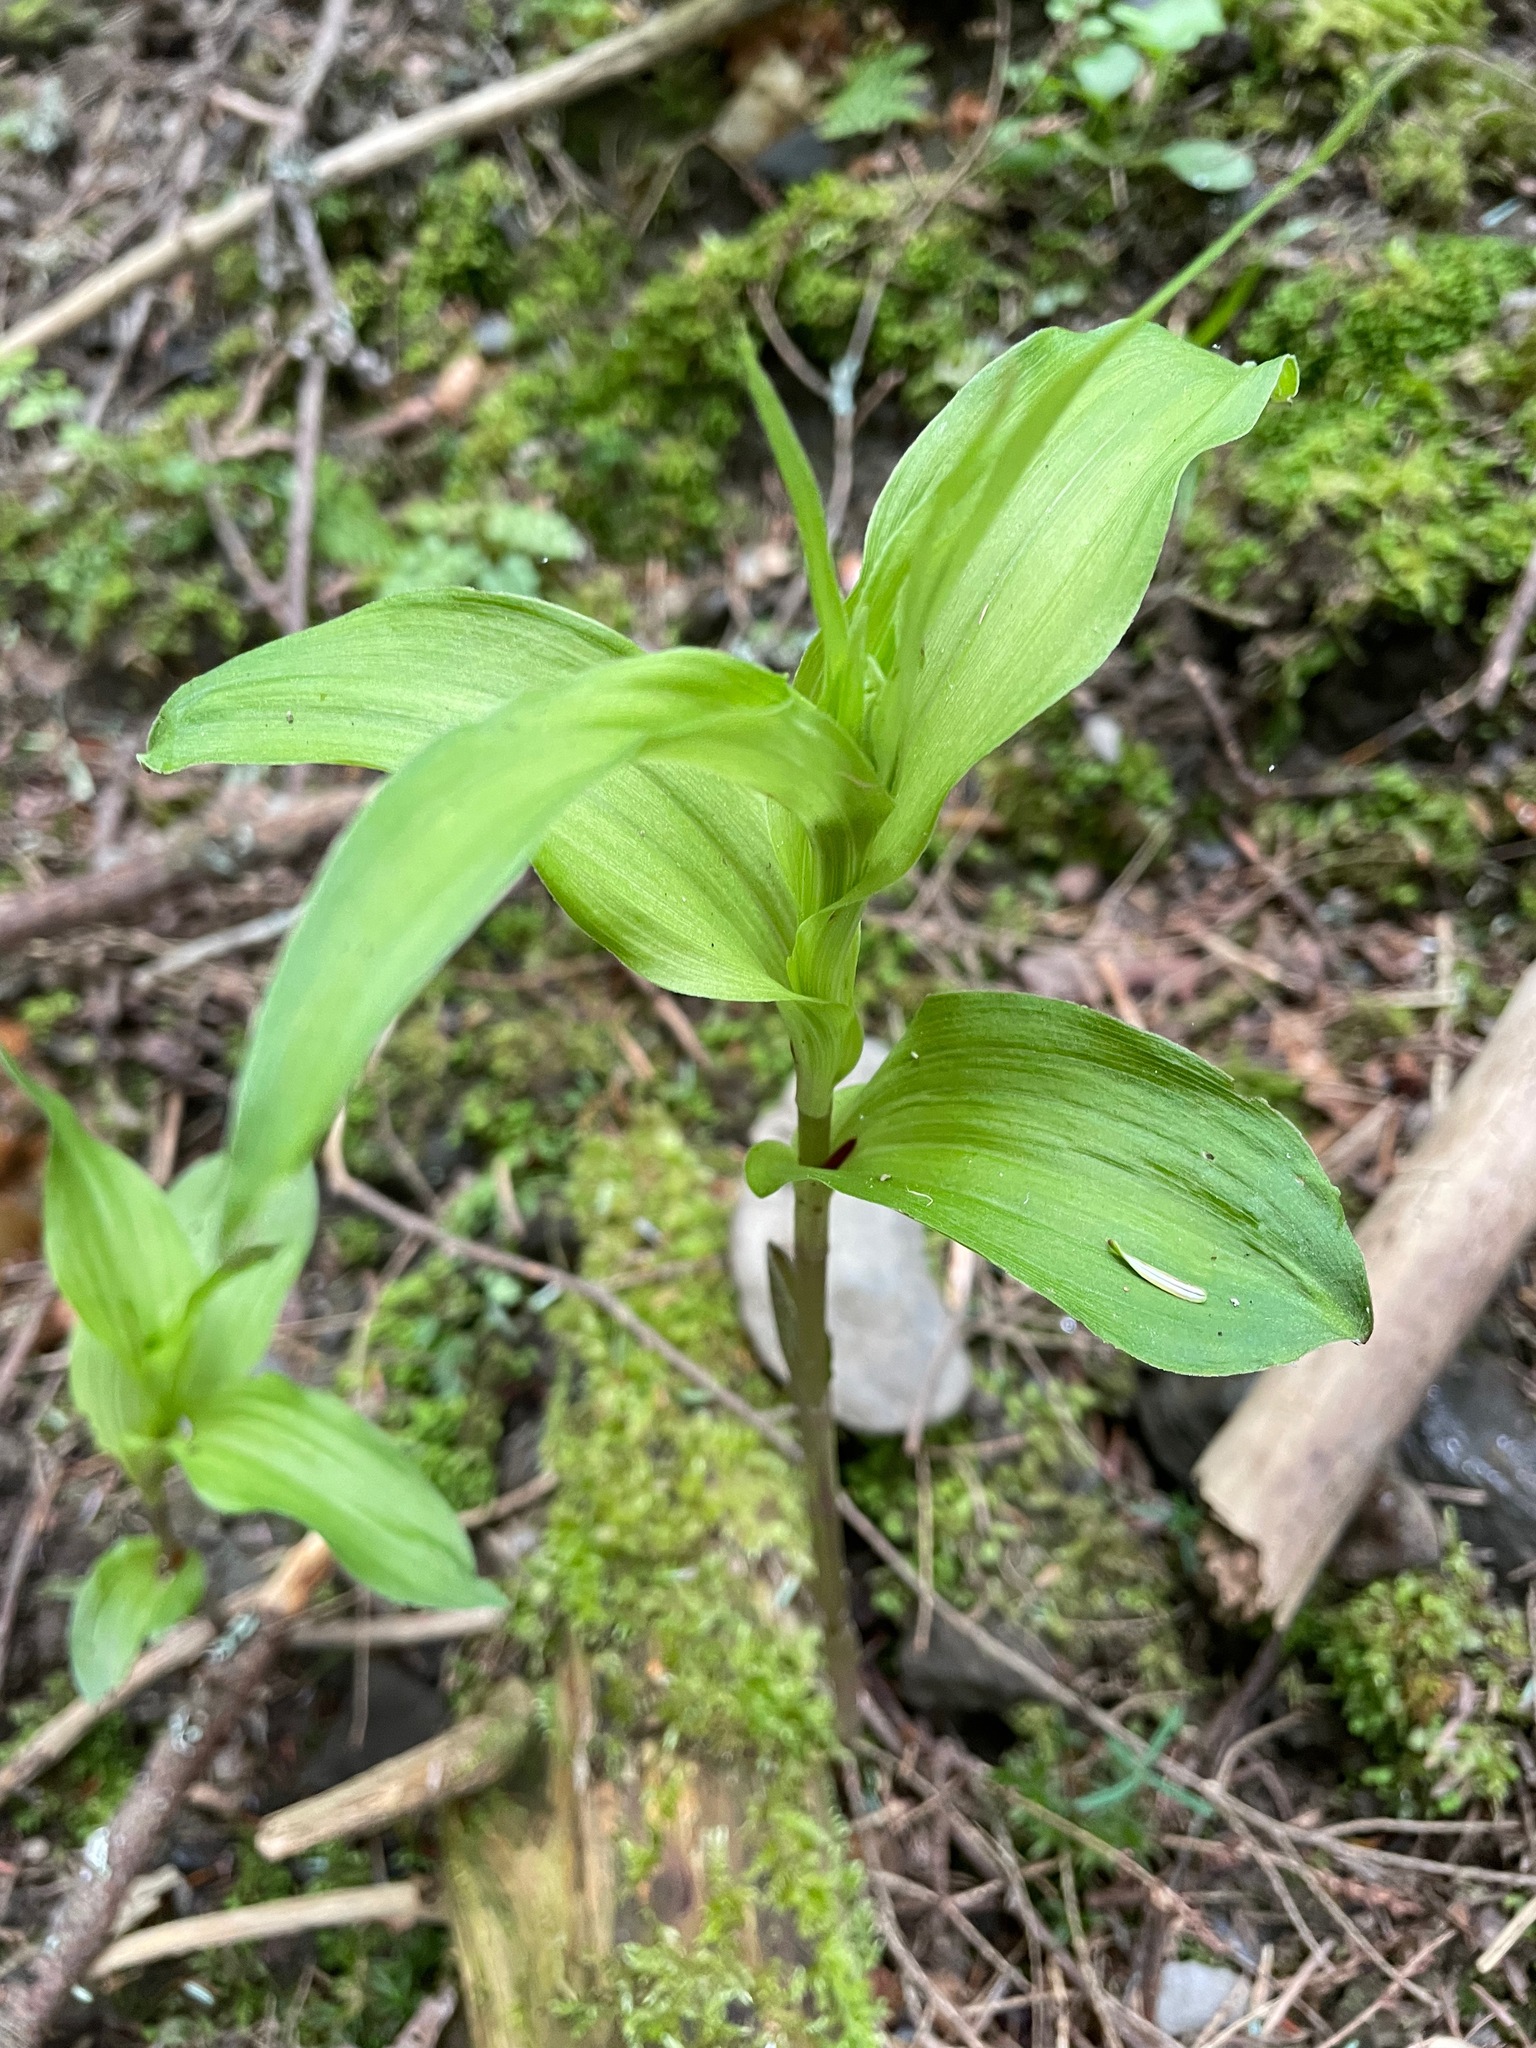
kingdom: Plantae
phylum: Tracheophyta
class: Liliopsida
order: Asparagales
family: Orchidaceae
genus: Epipactis
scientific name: Epipactis helleborine
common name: Broad-leaved helleborine
